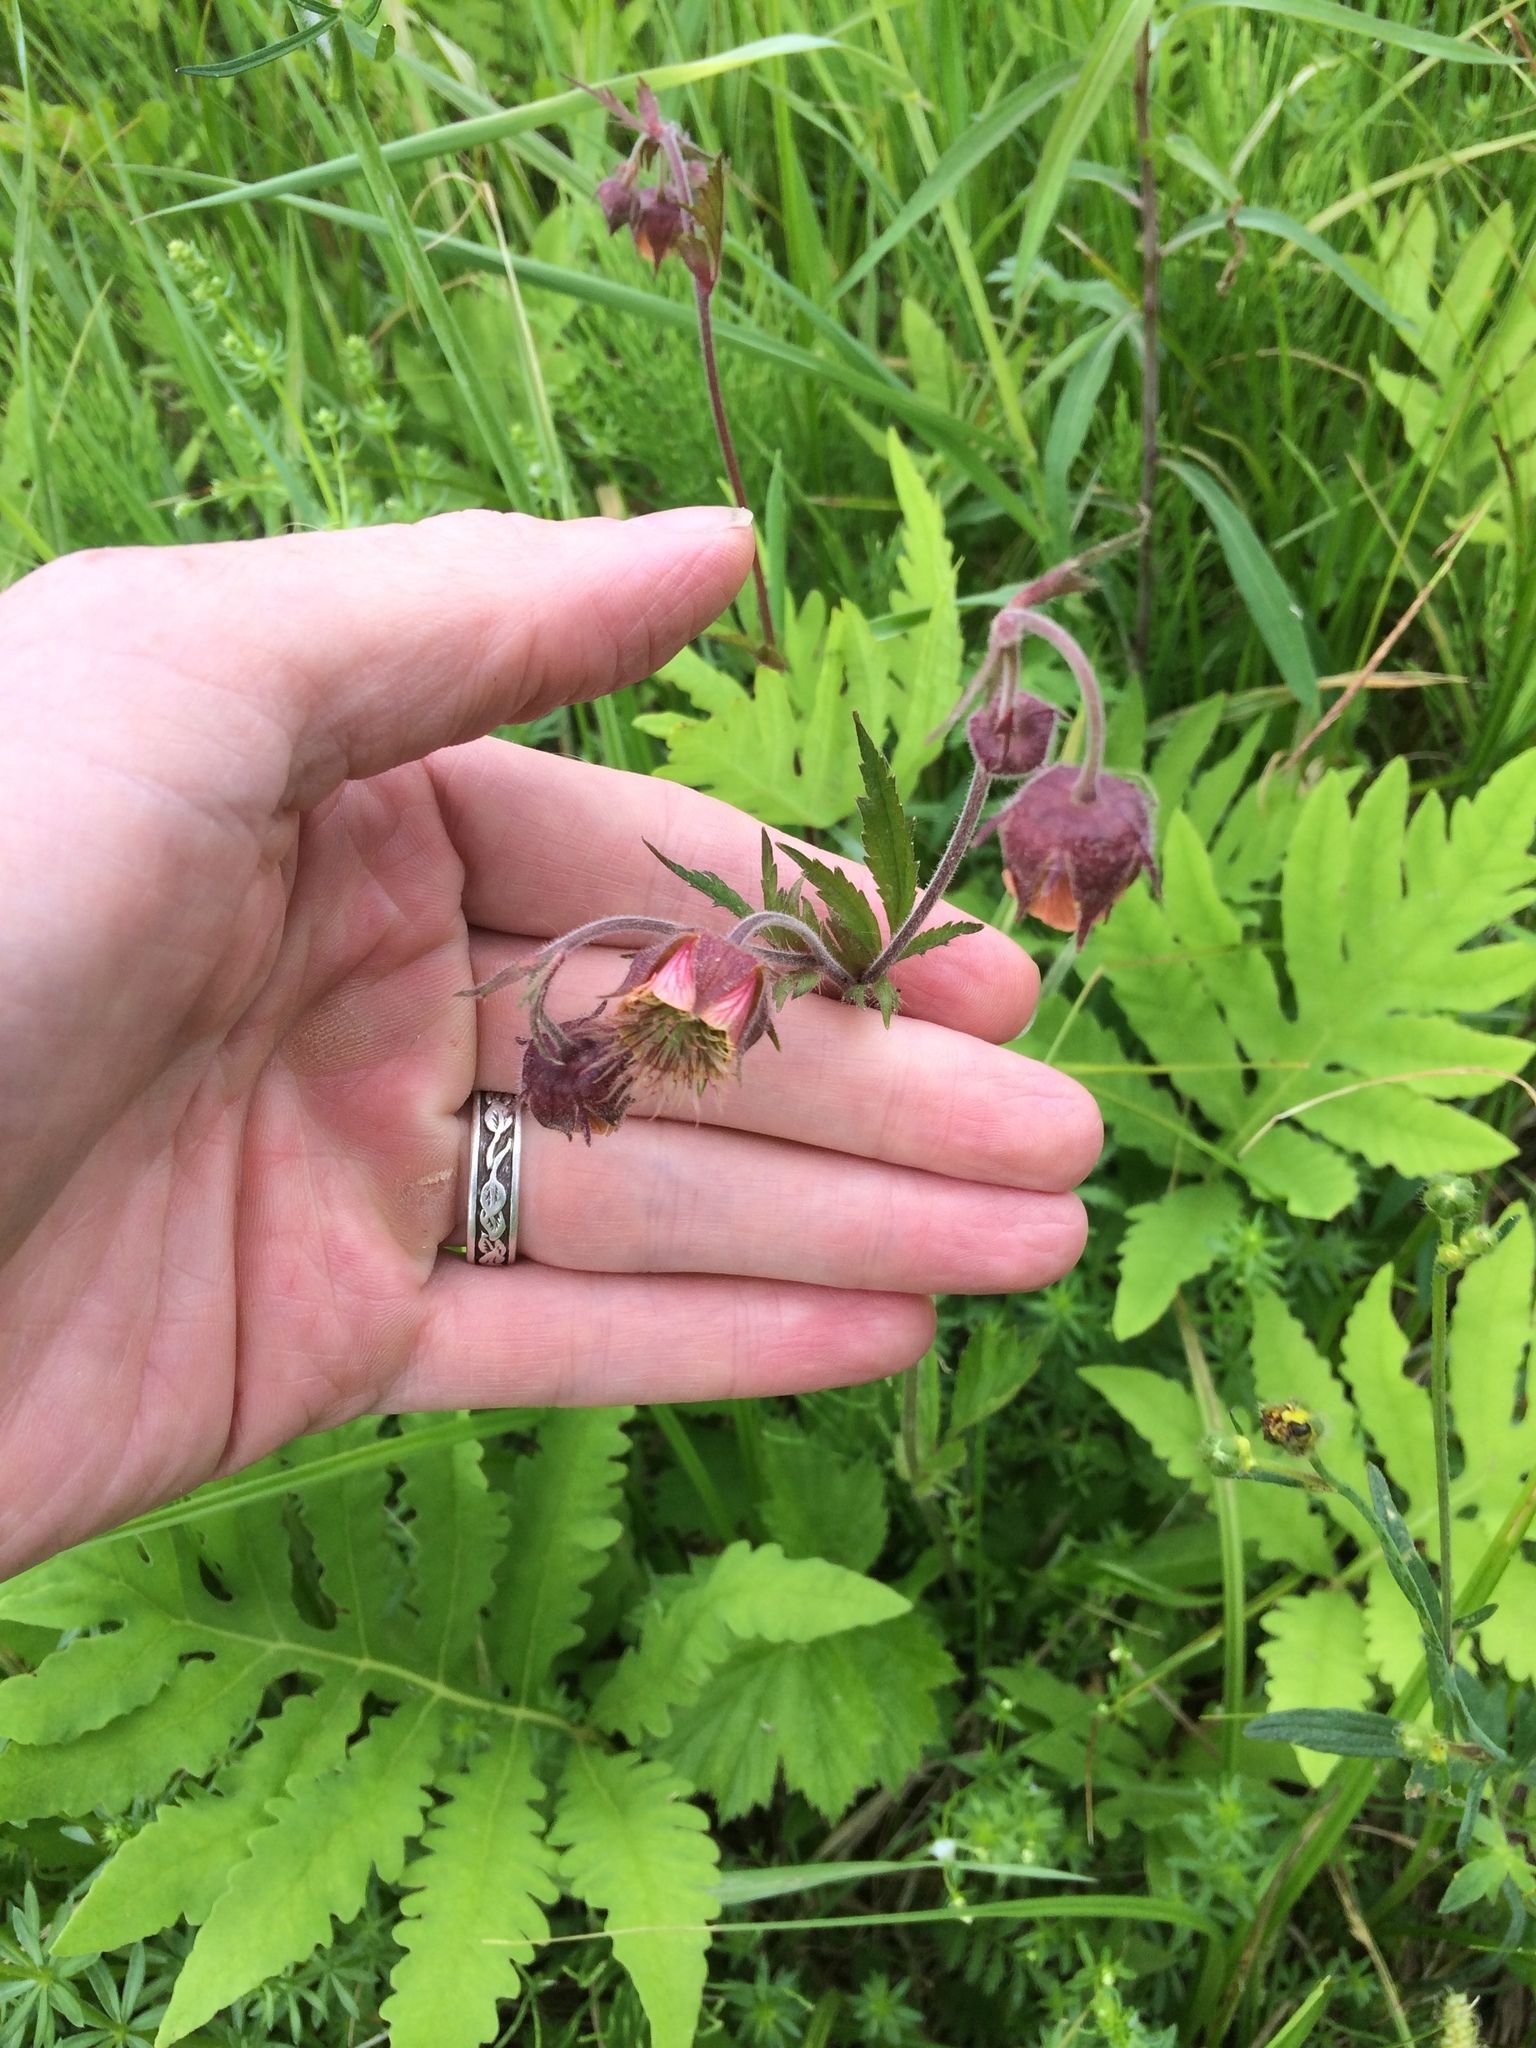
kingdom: Plantae
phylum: Tracheophyta
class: Magnoliopsida
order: Rosales
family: Rosaceae
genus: Geum
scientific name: Geum rivale
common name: Water avens
